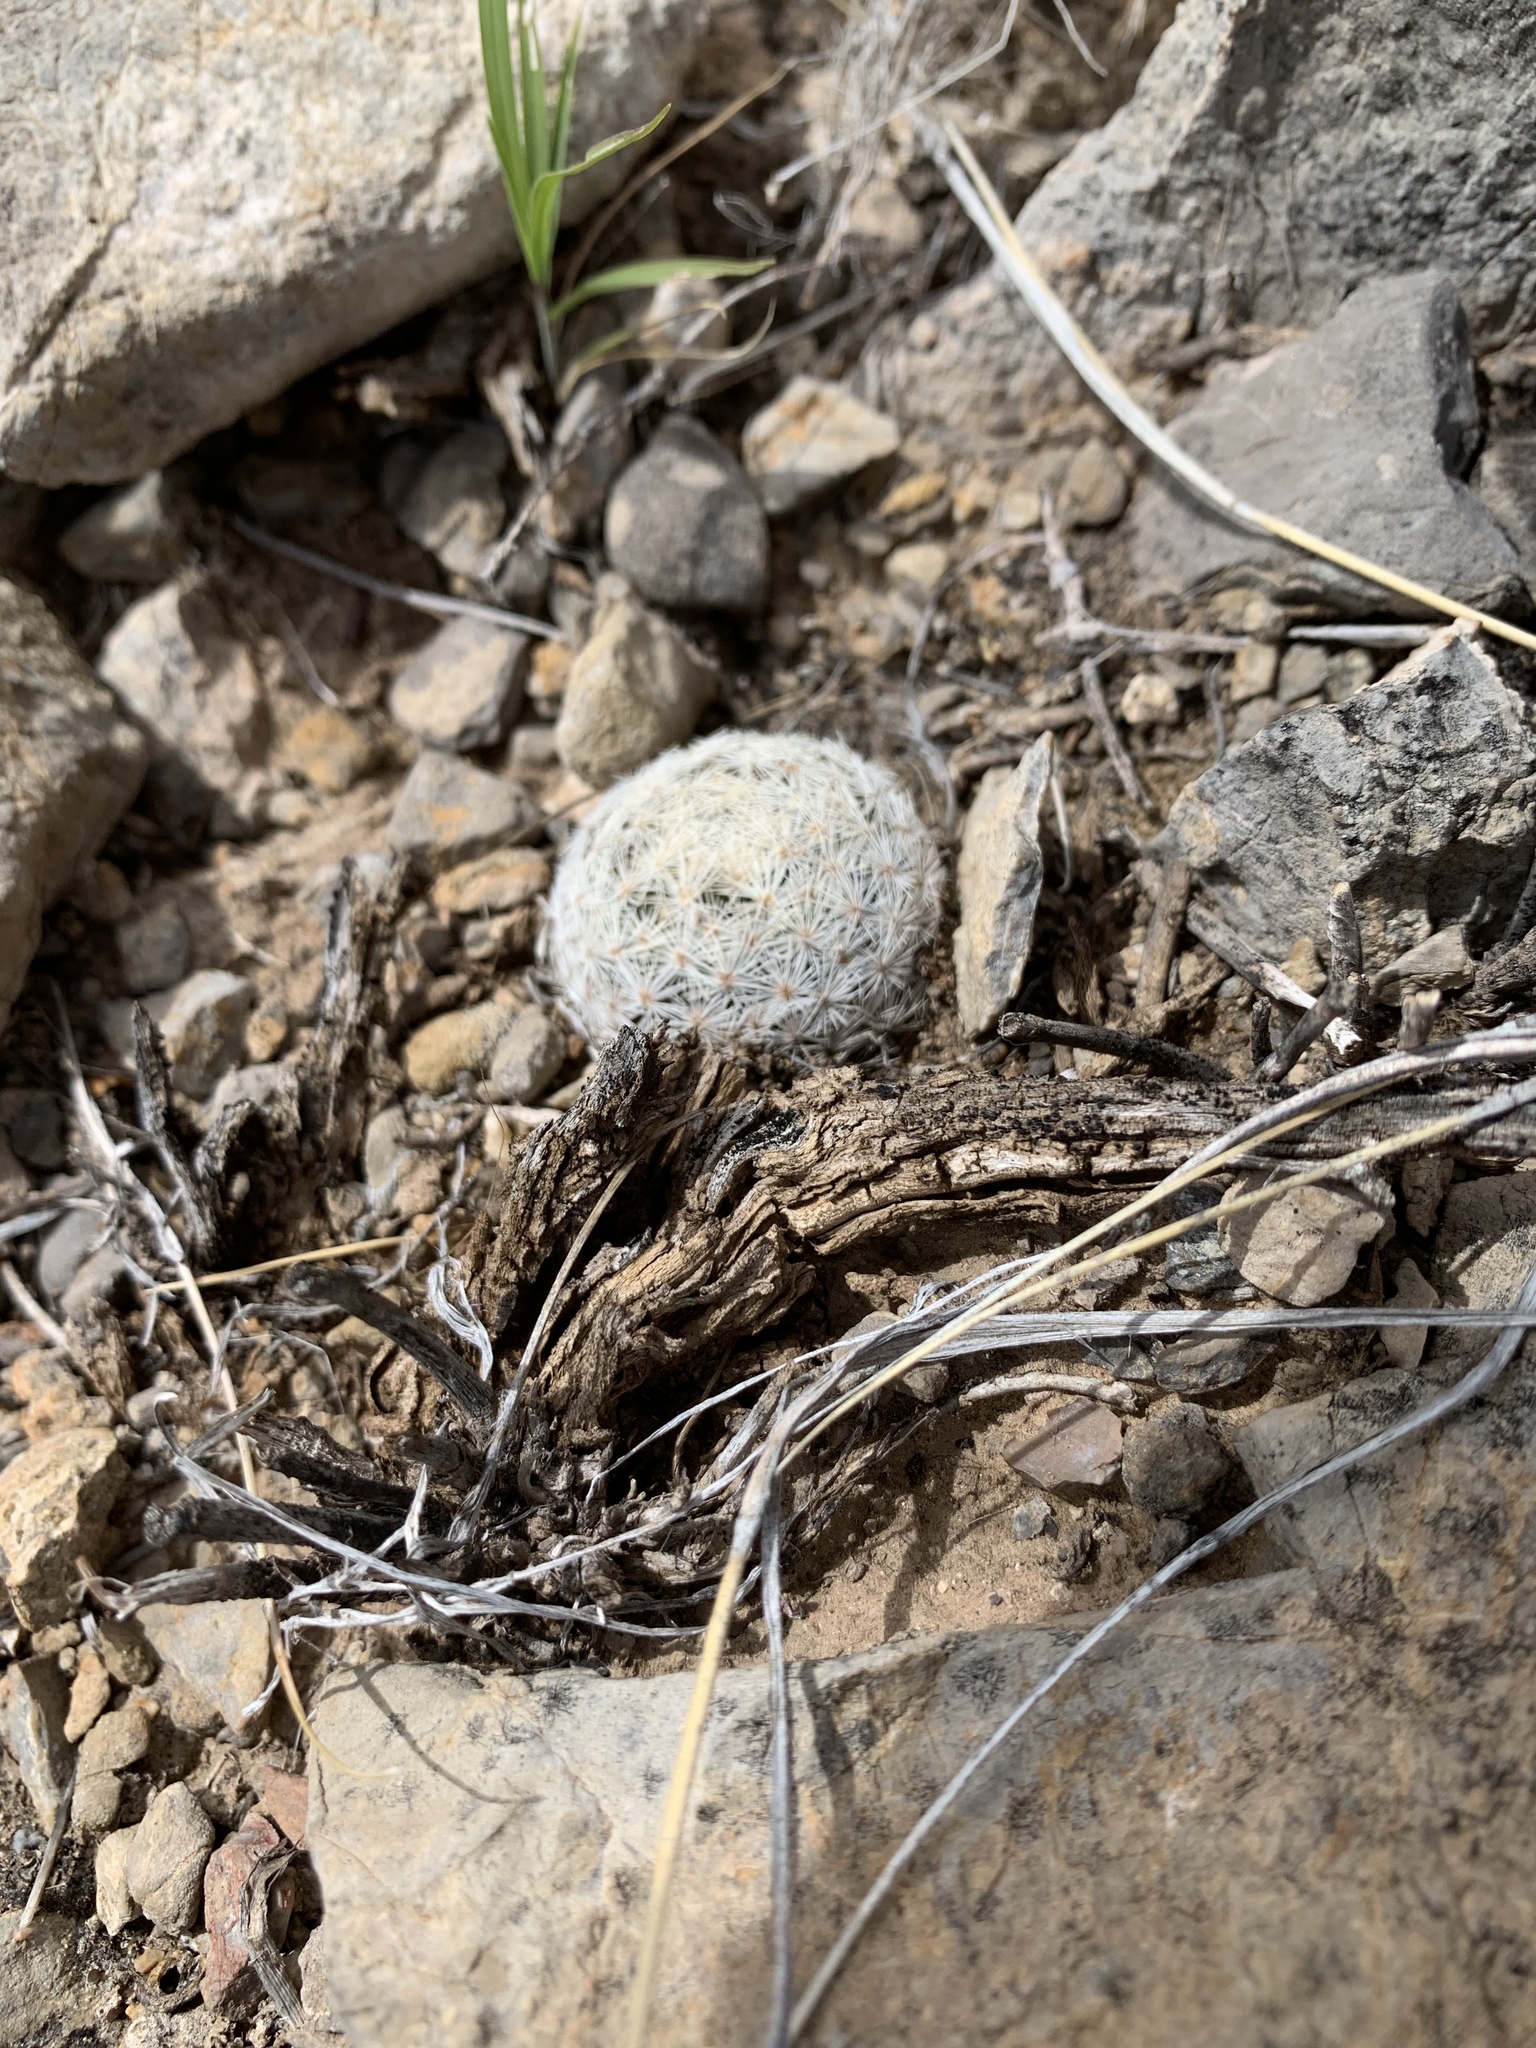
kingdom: Plantae
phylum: Tracheophyta
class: Magnoliopsida
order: Caryophyllales
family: Cactaceae
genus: Mammillaria
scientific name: Mammillaria lasiacantha
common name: Lace-spine nipple cactus
